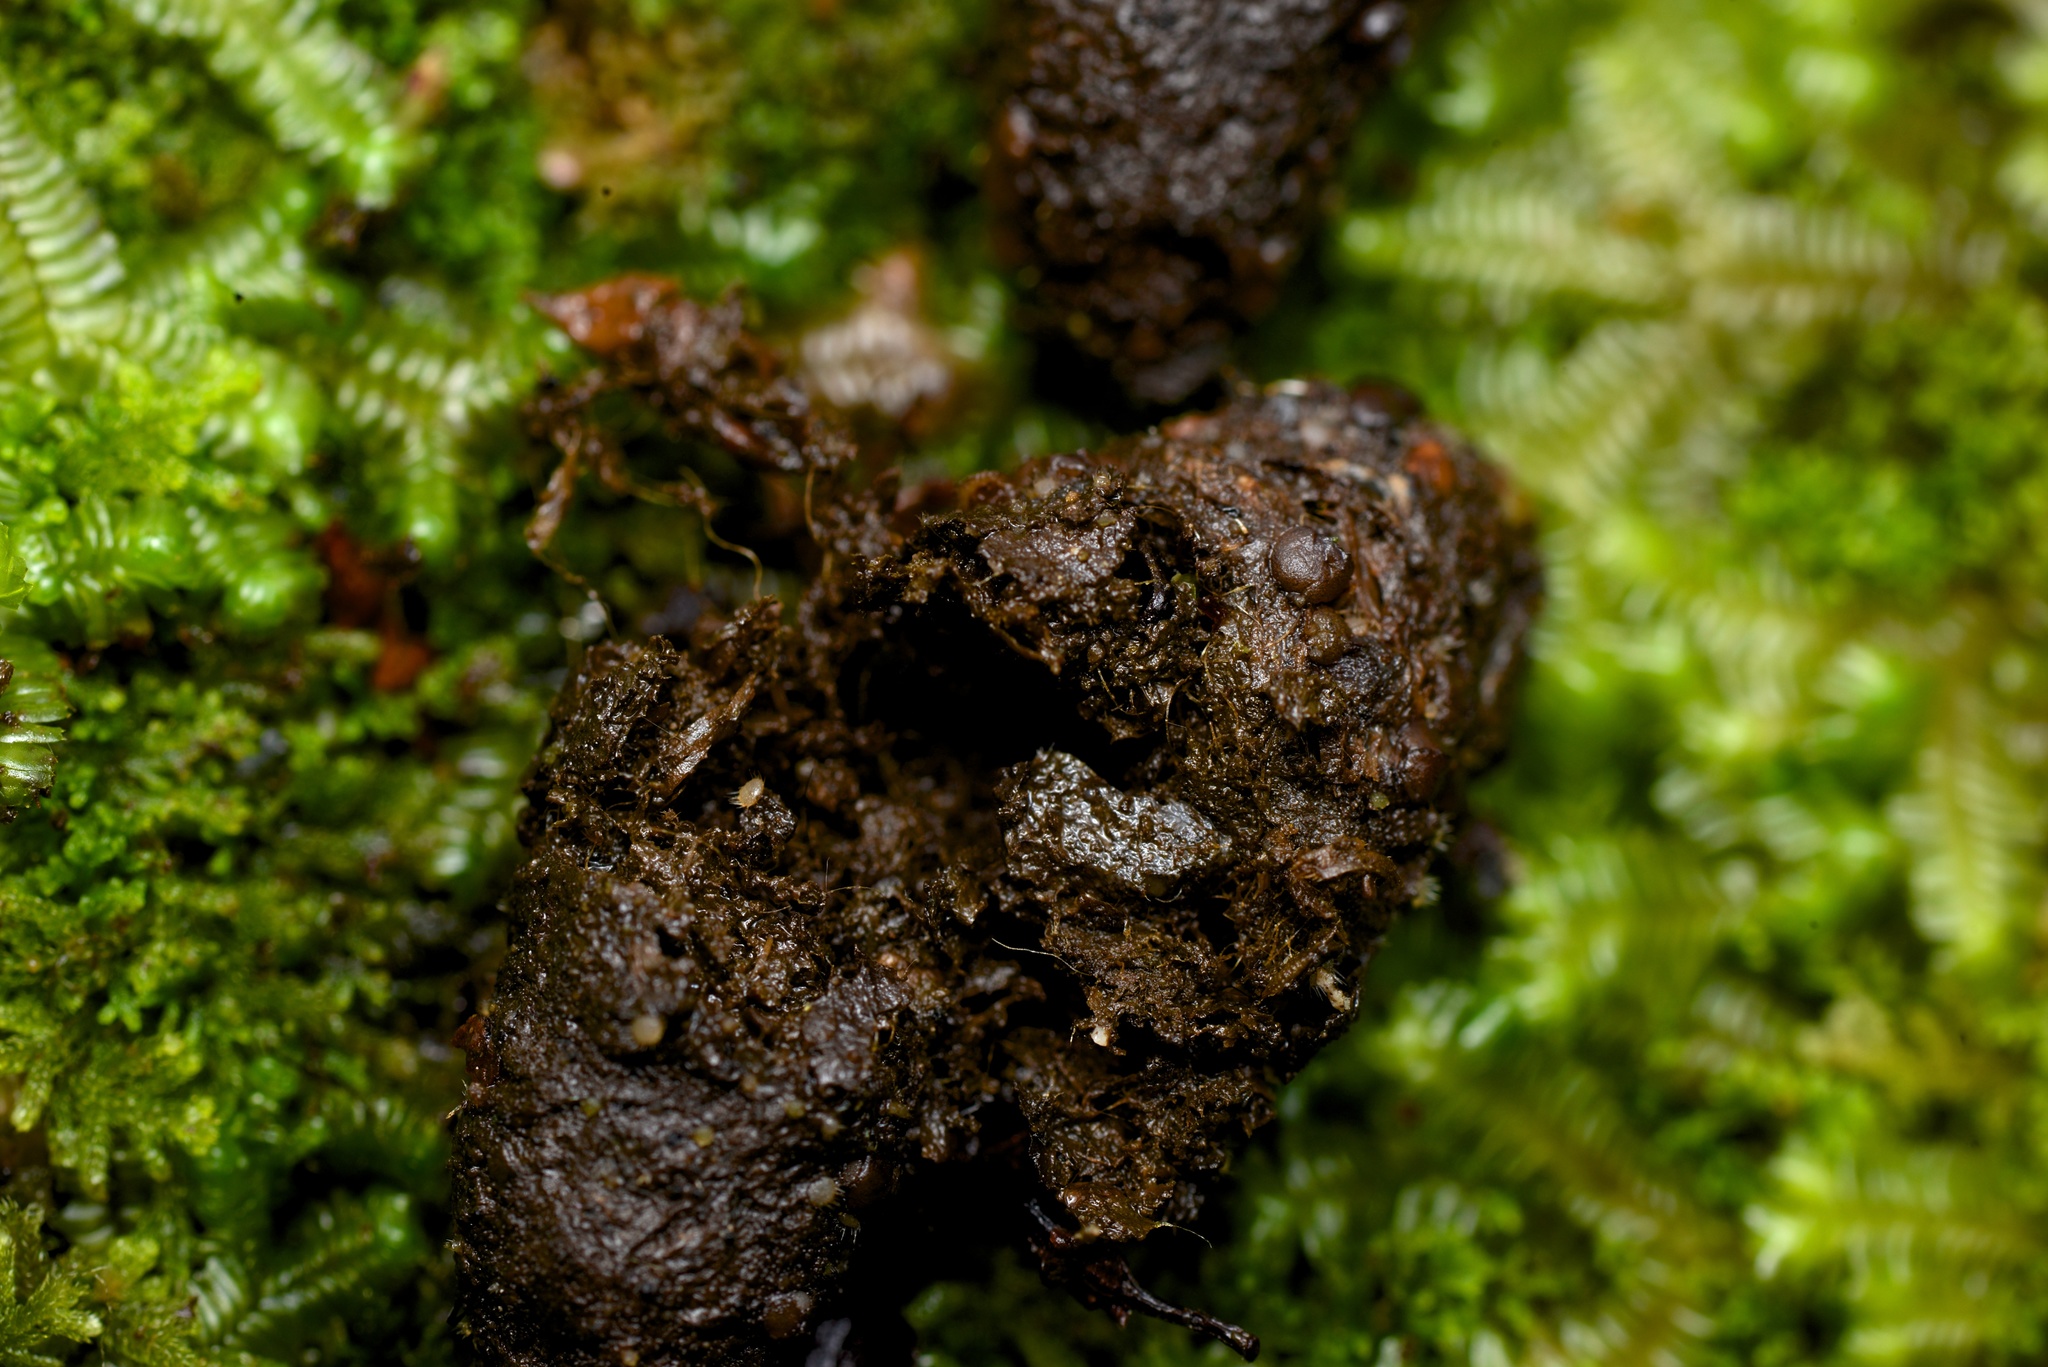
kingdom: Animalia
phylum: Chordata
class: Mammalia
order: Diprotodontia
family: Phalangeridae
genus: Trichosurus
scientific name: Trichosurus vulpecula
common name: Common brushtail
